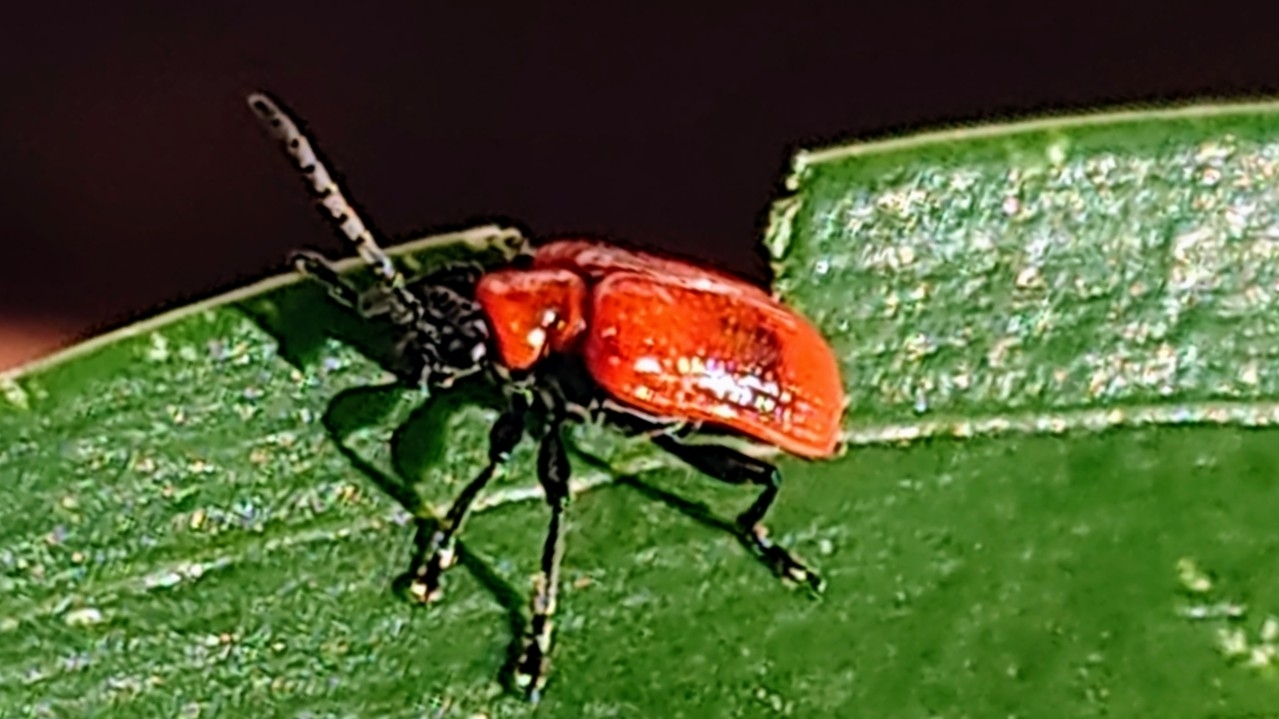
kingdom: Animalia
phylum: Arthropoda
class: Insecta
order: Coleoptera
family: Chrysomelidae
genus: Lilioceris
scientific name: Lilioceris lilii
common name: Lily beetle
